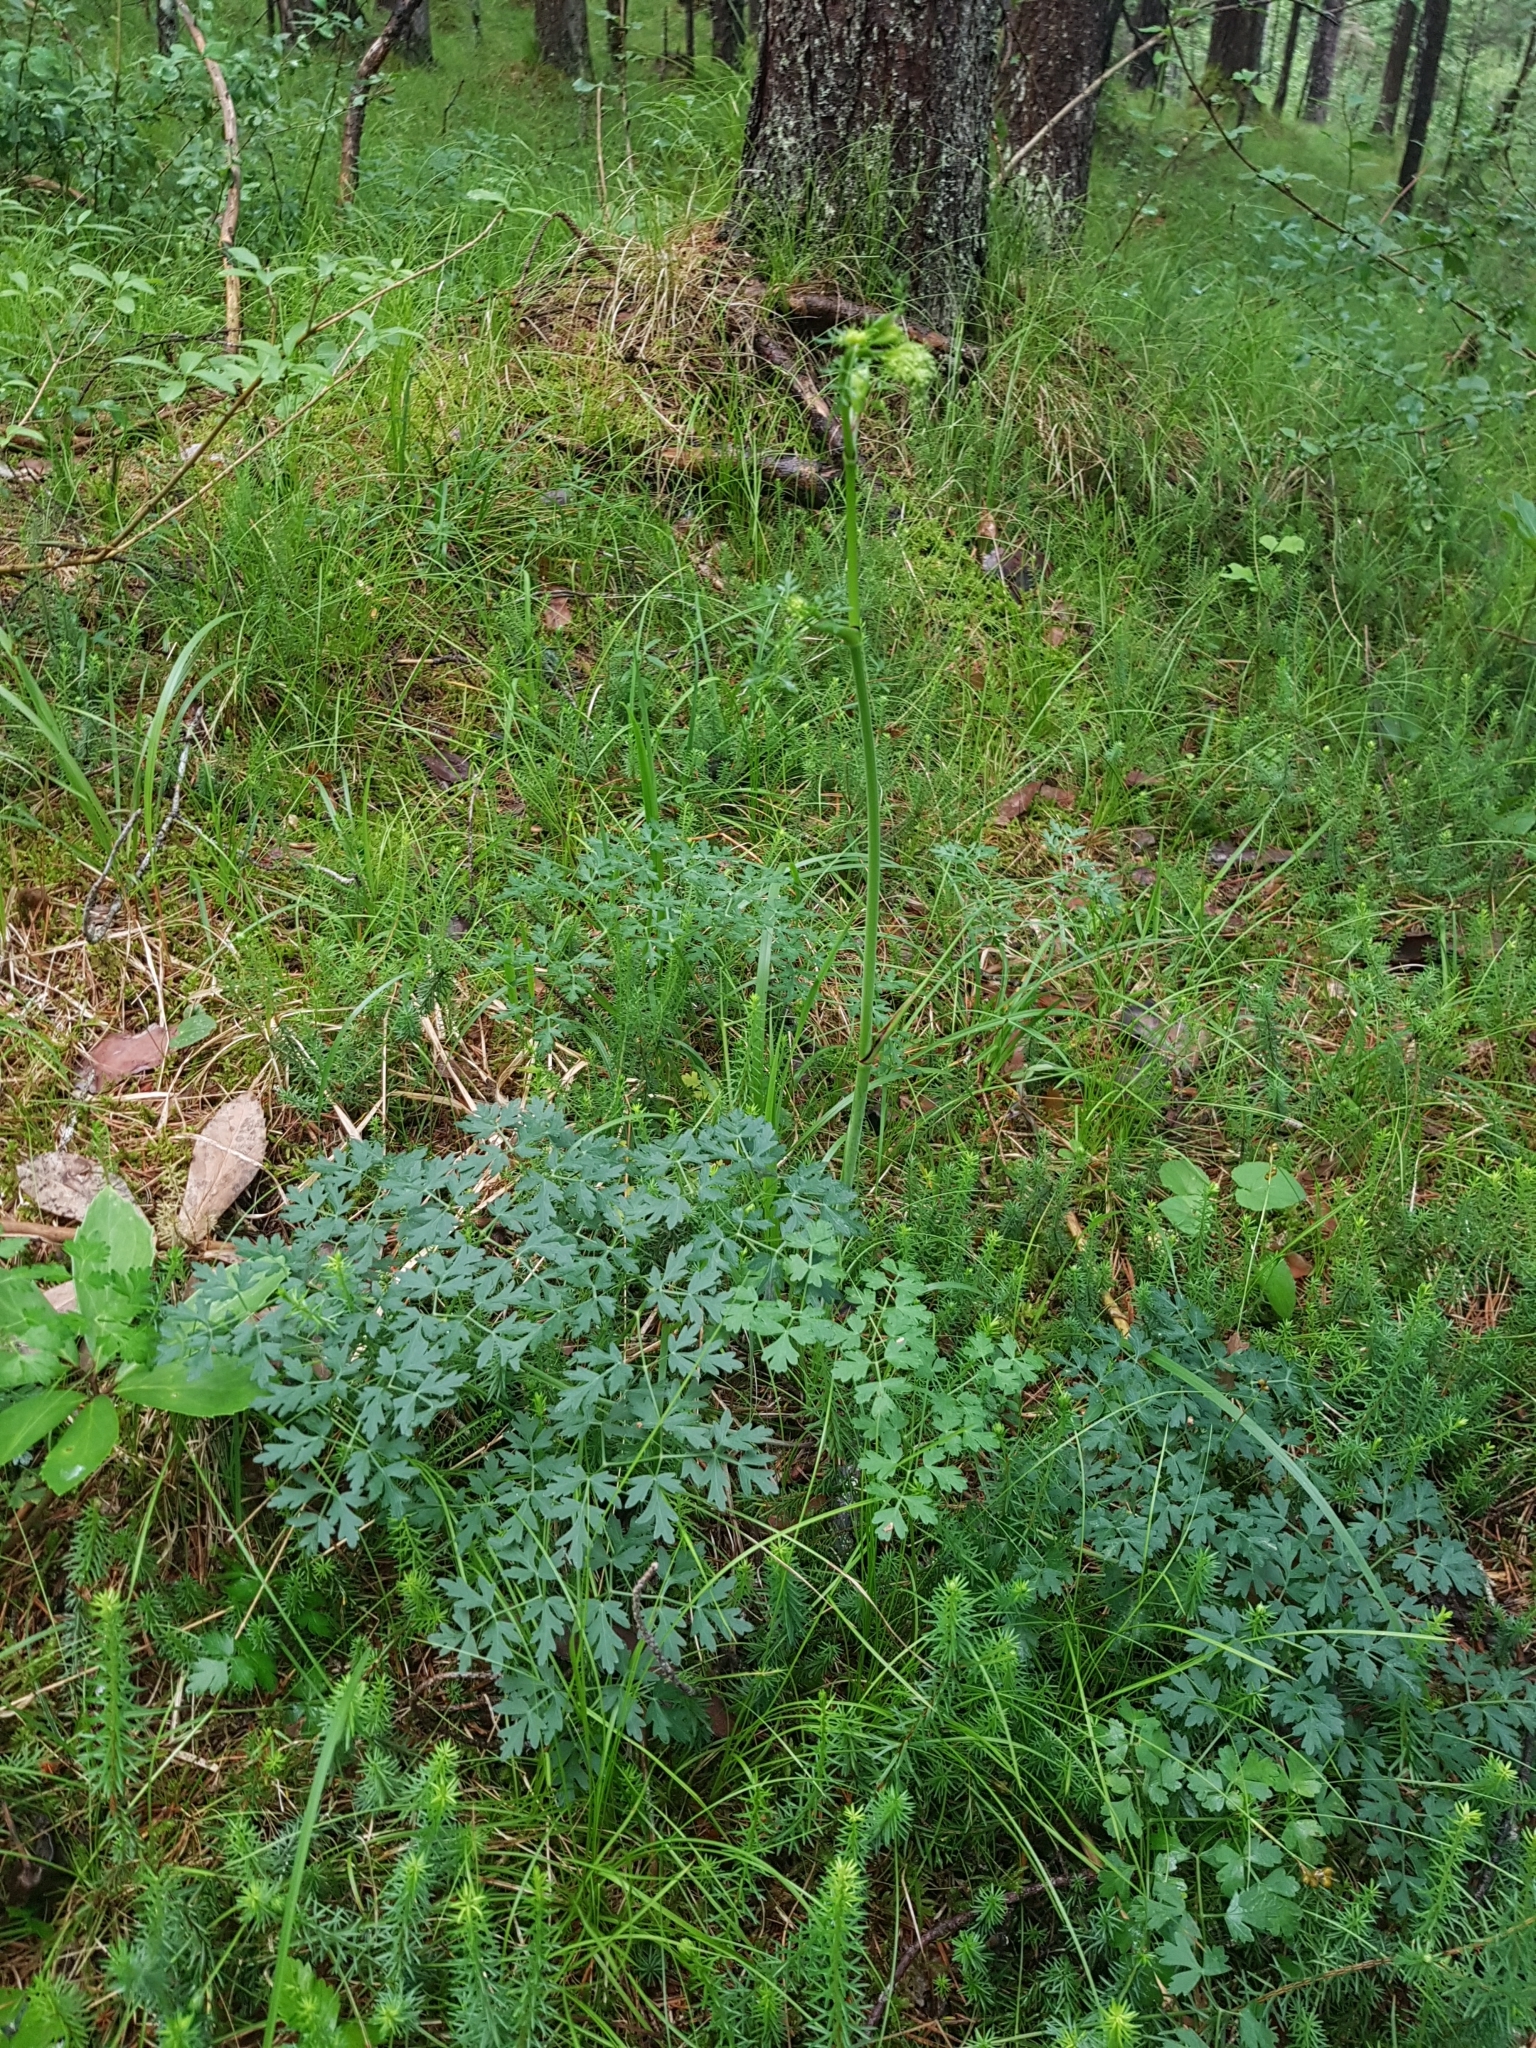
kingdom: Plantae
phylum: Tracheophyta
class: Magnoliopsida
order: Apiales
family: Apiaceae
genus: Oreoselinum
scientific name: Oreoselinum nigrum
